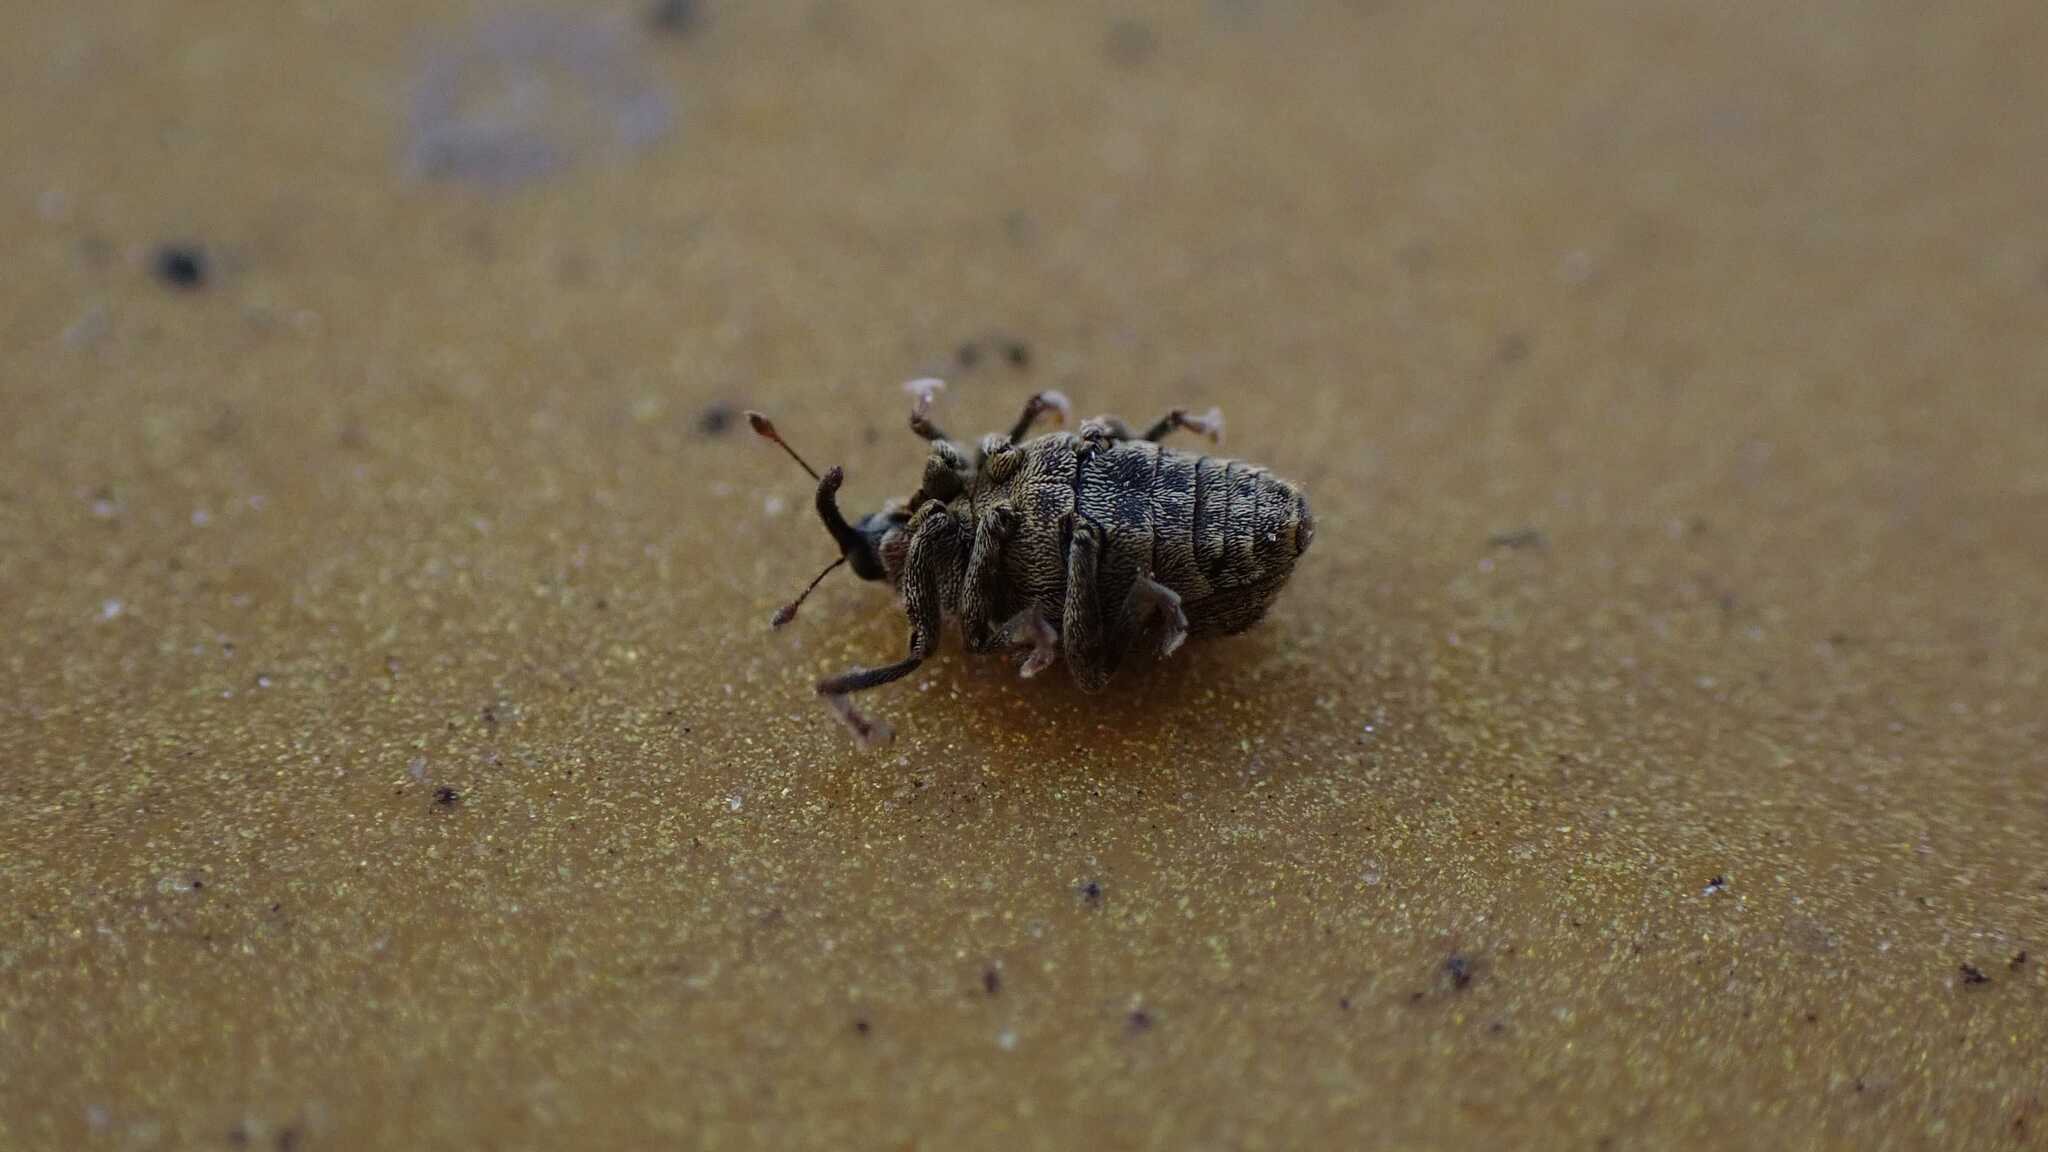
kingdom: Animalia
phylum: Arthropoda
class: Insecta
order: Coleoptera
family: Curculionidae
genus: Ceutorhynchus
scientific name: Ceutorhynchus pallidactylus
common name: Cabbage stem weavil
